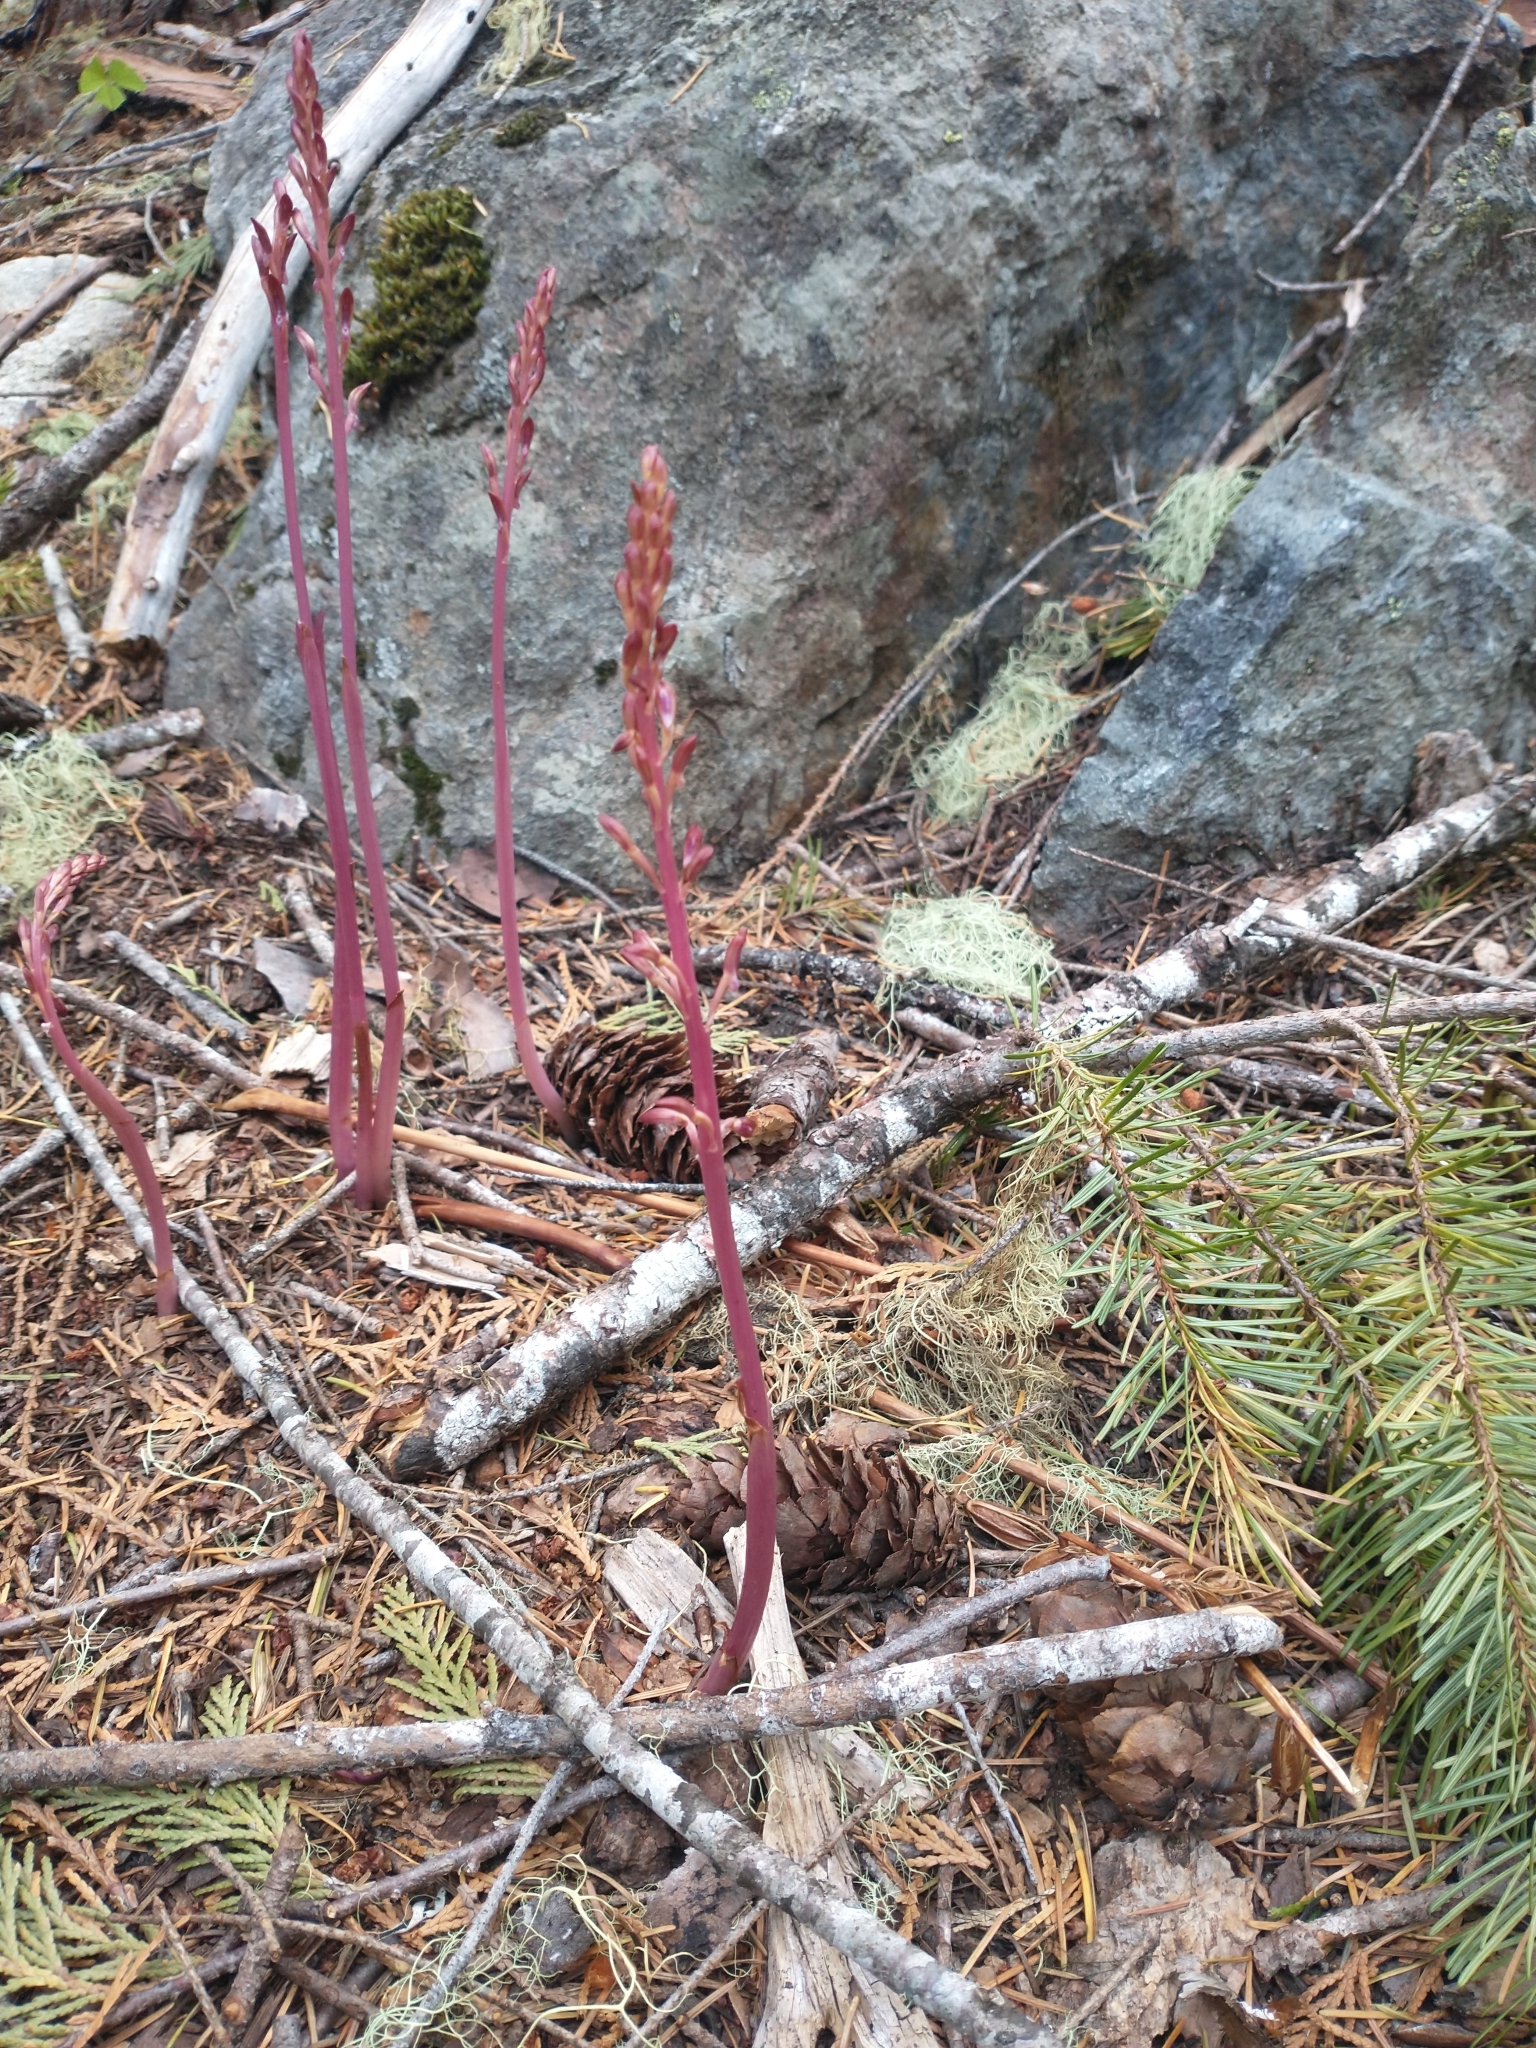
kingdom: Plantae
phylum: Tracheophyta
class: Liliopsida
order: Asparagales
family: Orchidaceae
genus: Corallorhiza
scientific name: Corallorhiza mertensiana
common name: Pacific coralroot
